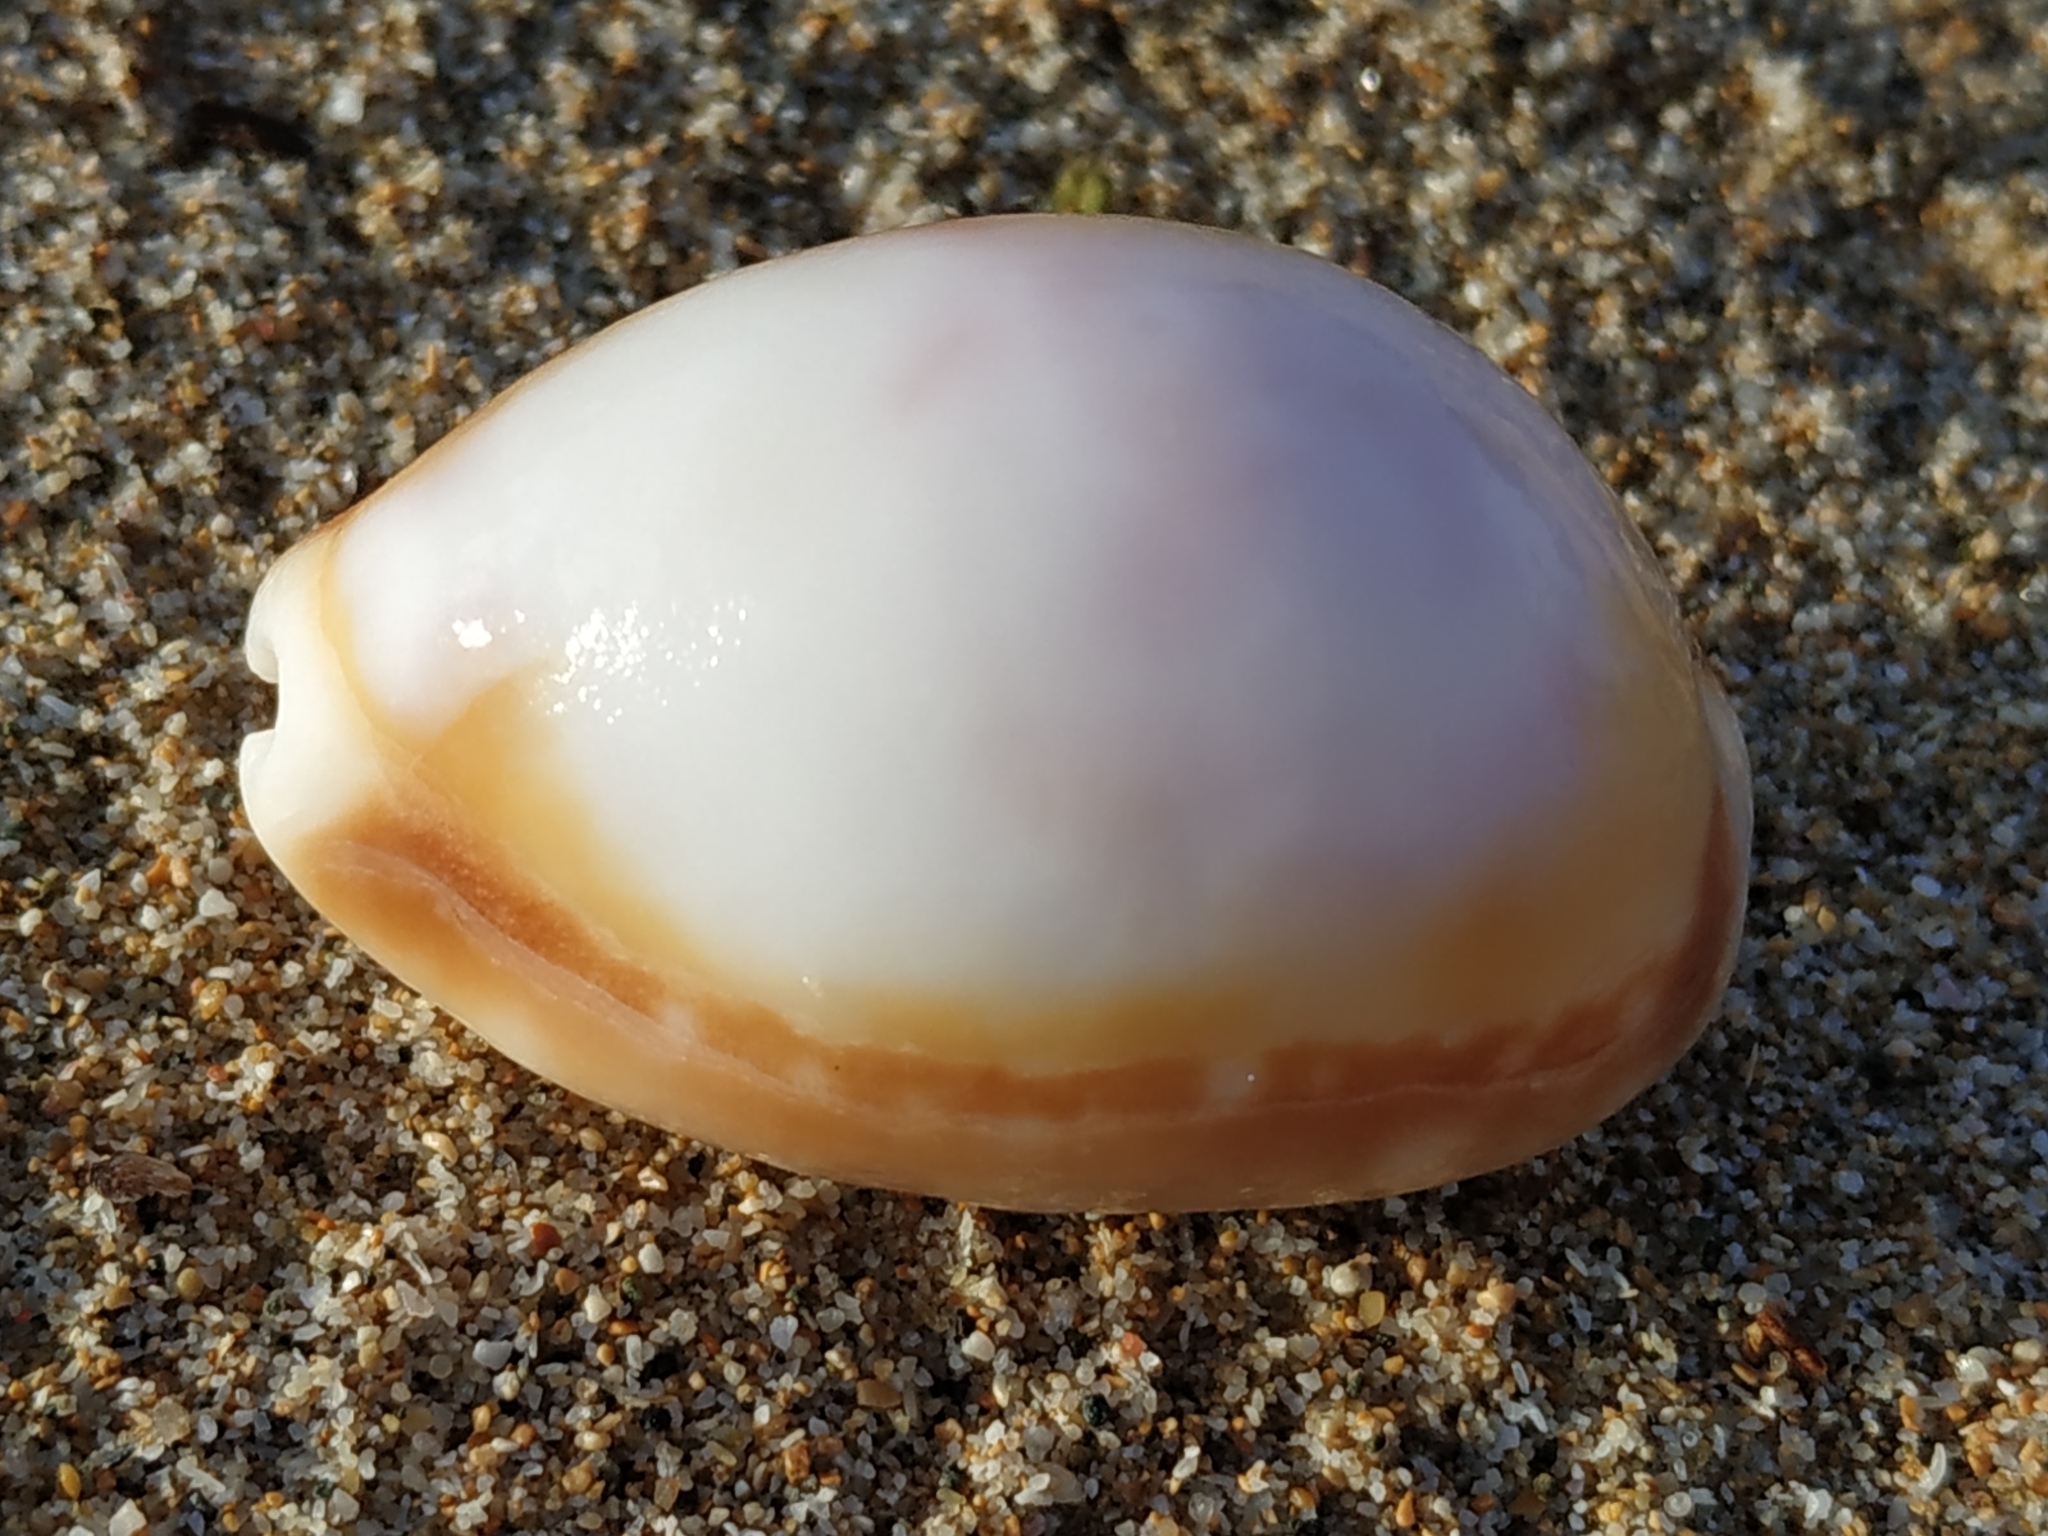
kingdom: Animalia
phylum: Mollusca
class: Gastropoda
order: Littorinimorpha
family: Cypraeidae
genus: Lyncina
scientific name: Lyncina vitellus
